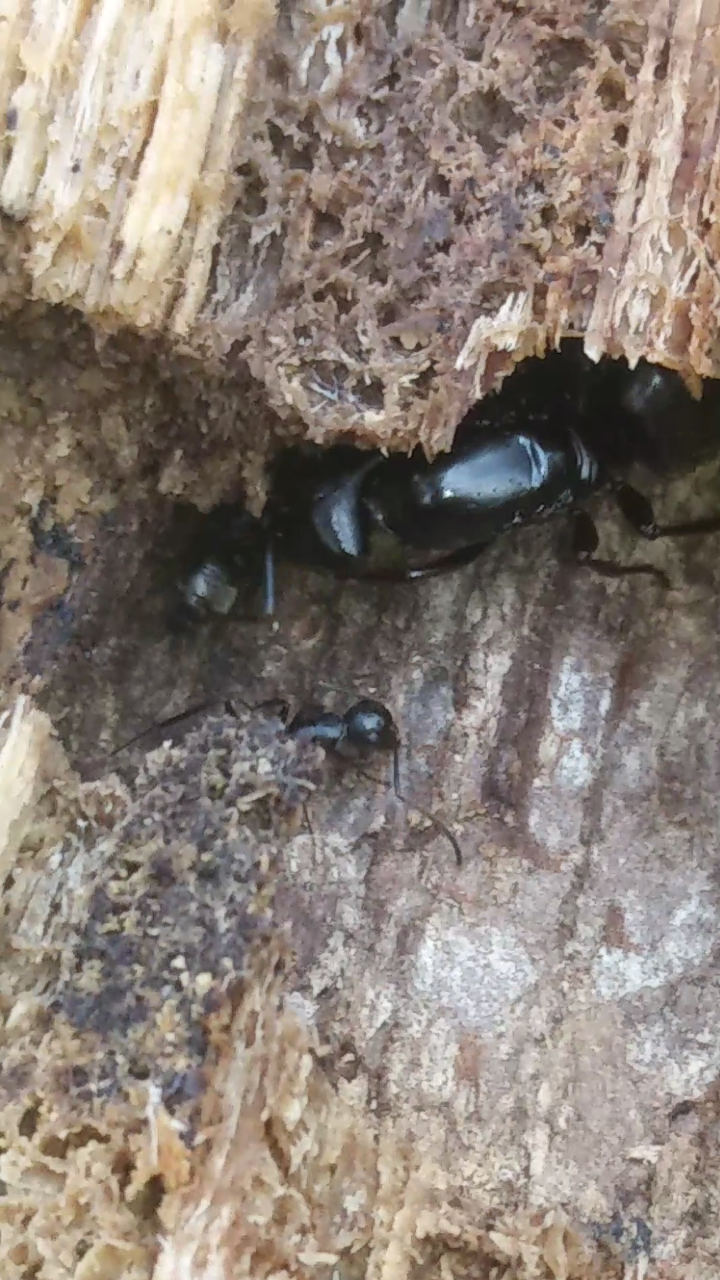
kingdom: Animalia
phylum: Arthropoda
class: Insecta
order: Hymenoptera
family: Formicidae
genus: Camponotus
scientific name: Camponotus pennsylvanicus
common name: Black carpenter ant
